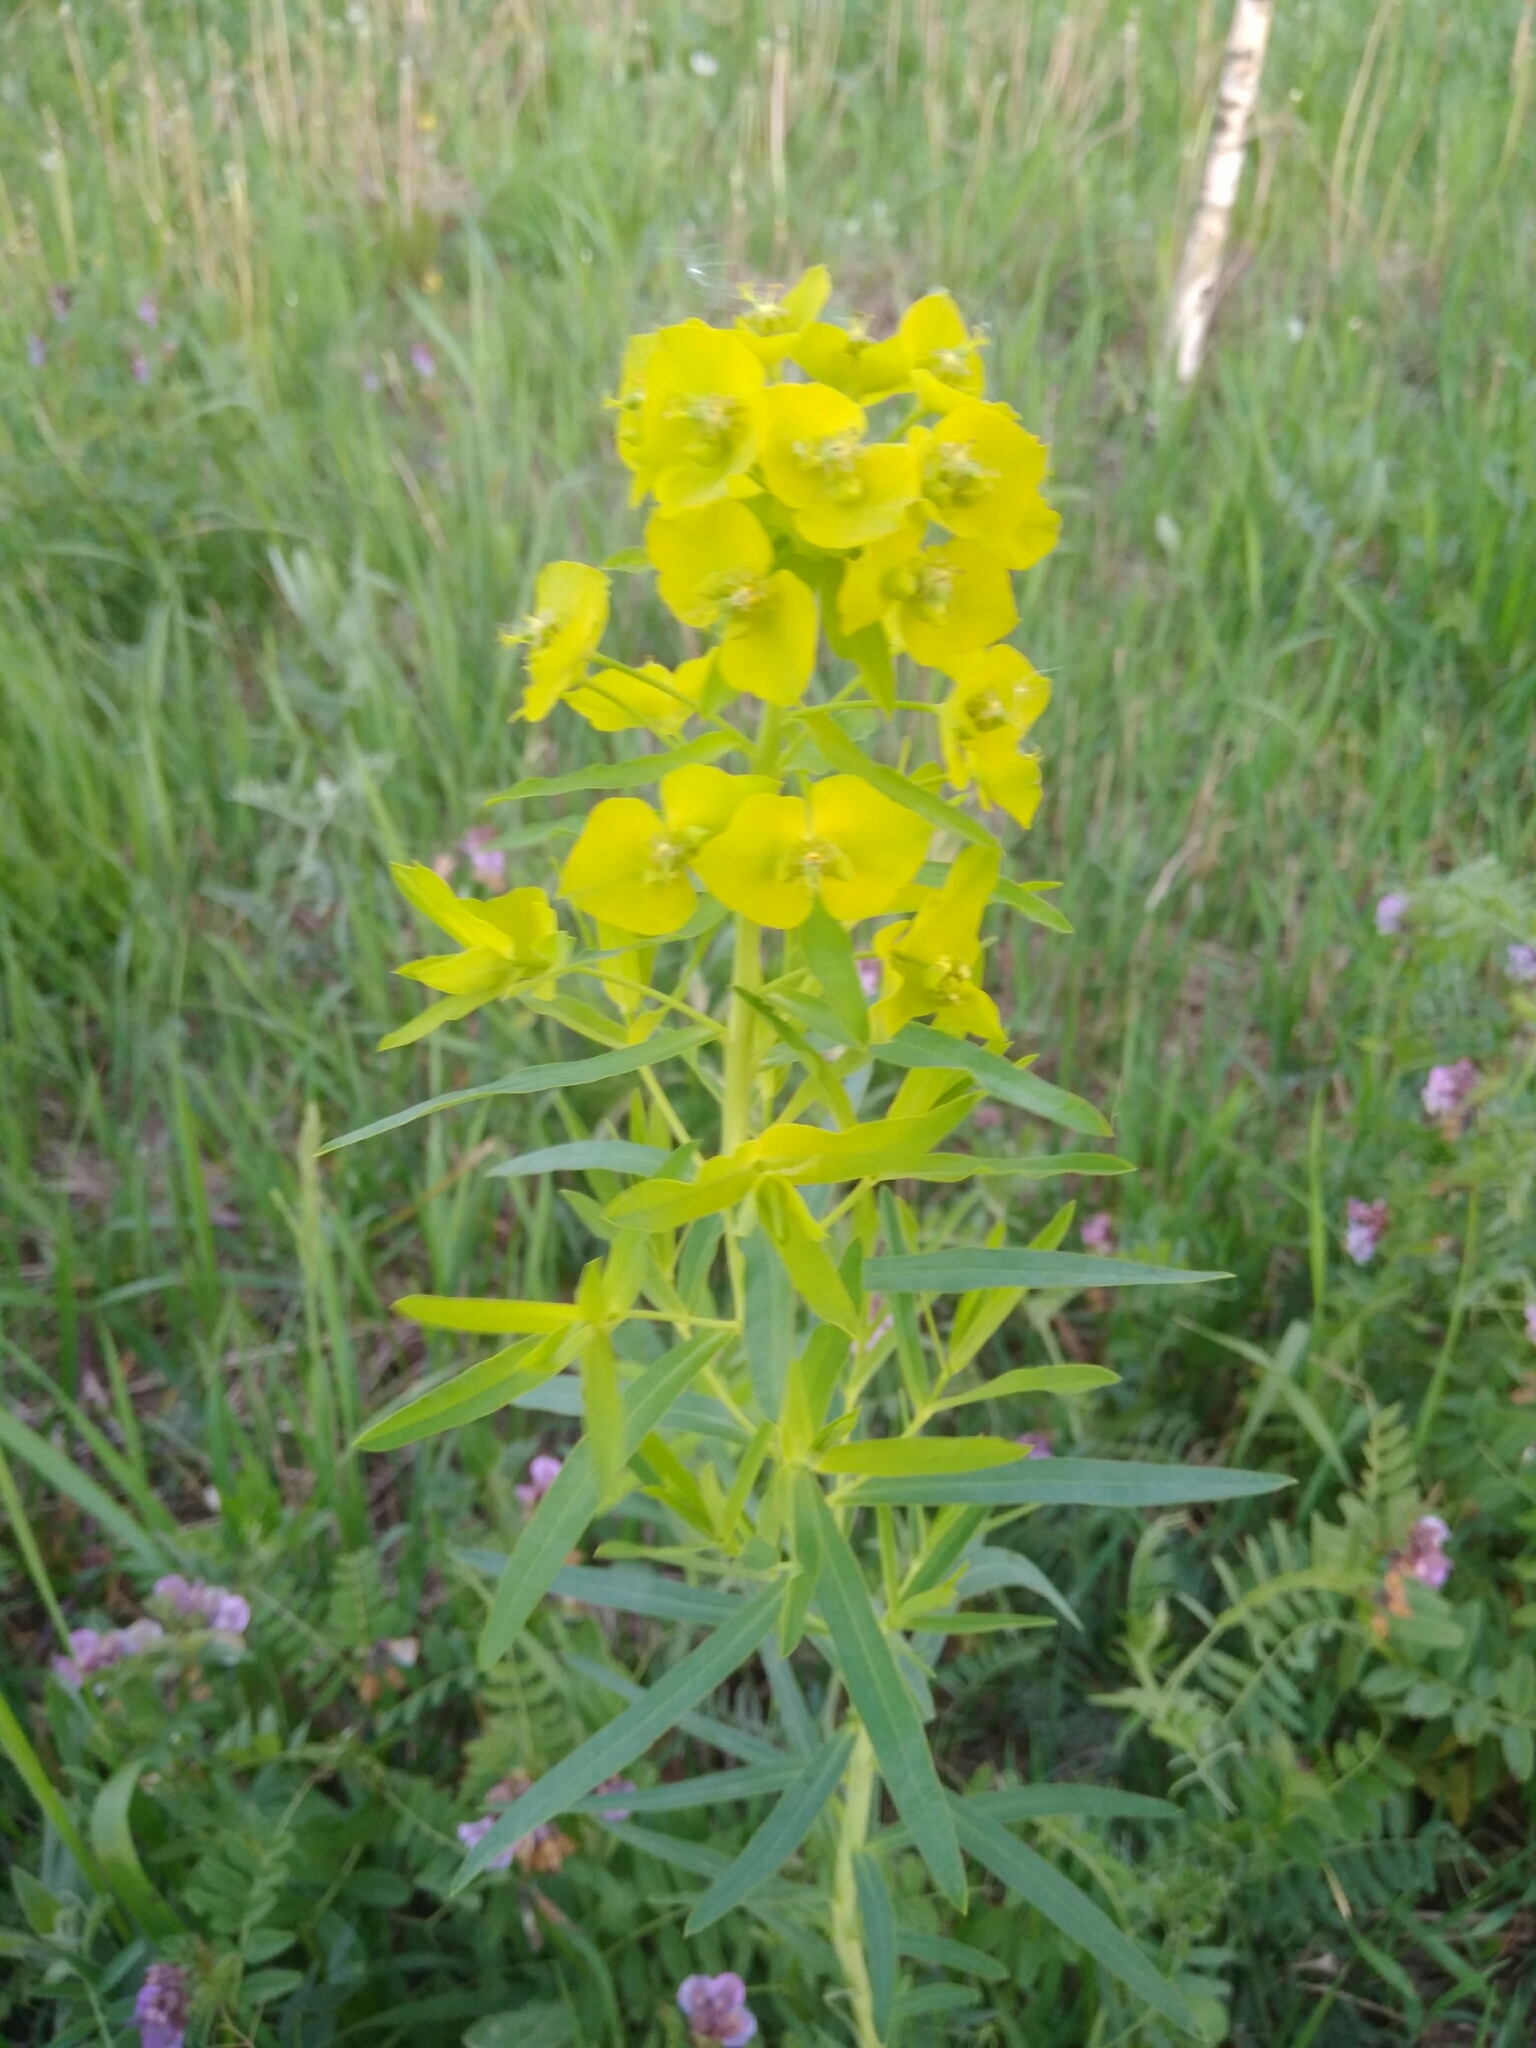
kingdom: Plantae
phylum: Tracheophyta
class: Magnoliopsida
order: Malpighiales
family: Euphorbiaceae
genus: Euphorbia
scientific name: Euphorbia virgata
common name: Leafy spurge
